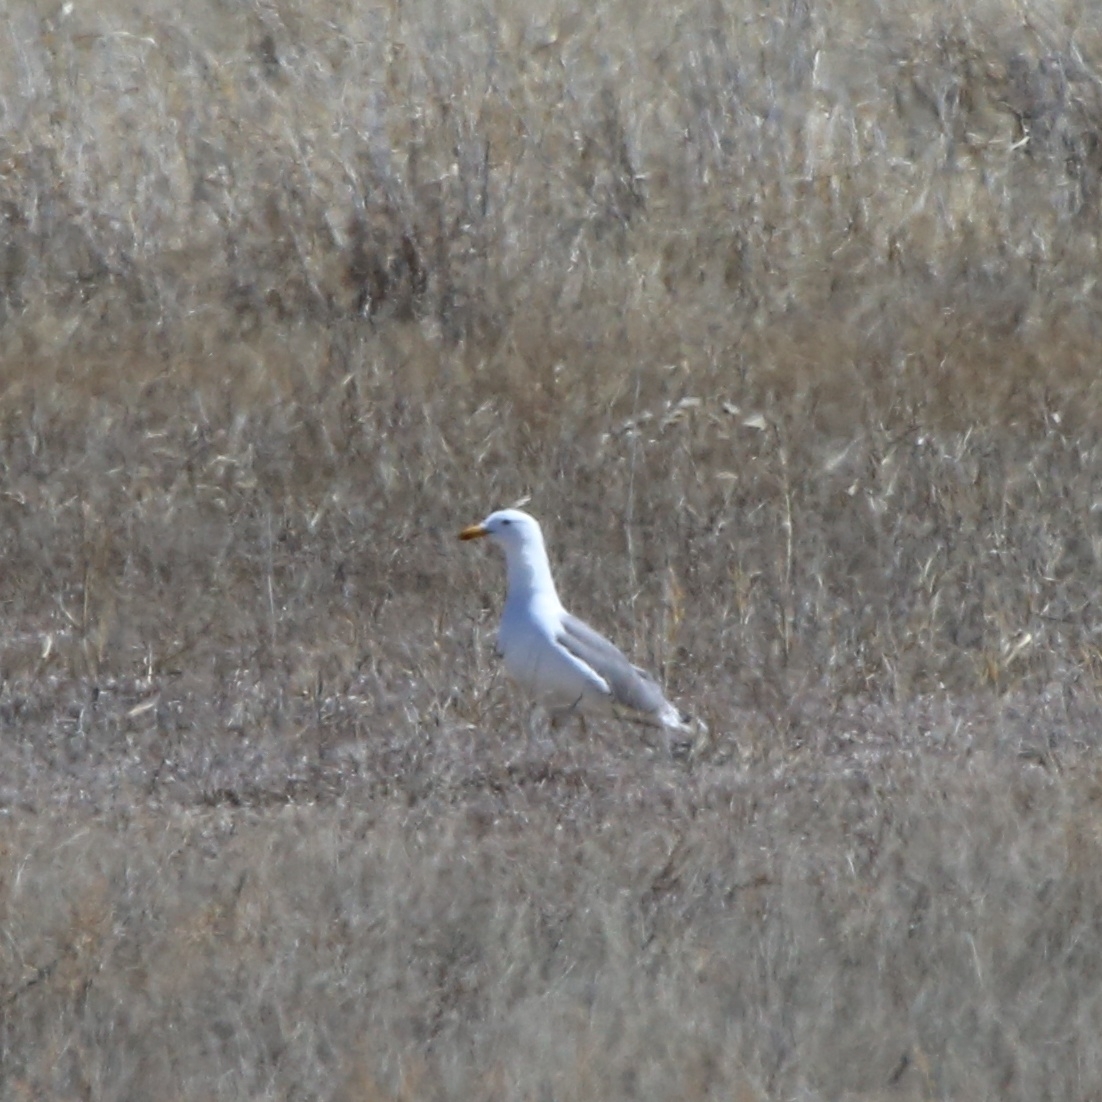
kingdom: Animalia
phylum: Chordata
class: Aves
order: Charadriiformes
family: Laridae
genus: Larus
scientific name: Larus fuscus
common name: Lesser black-backed gull
